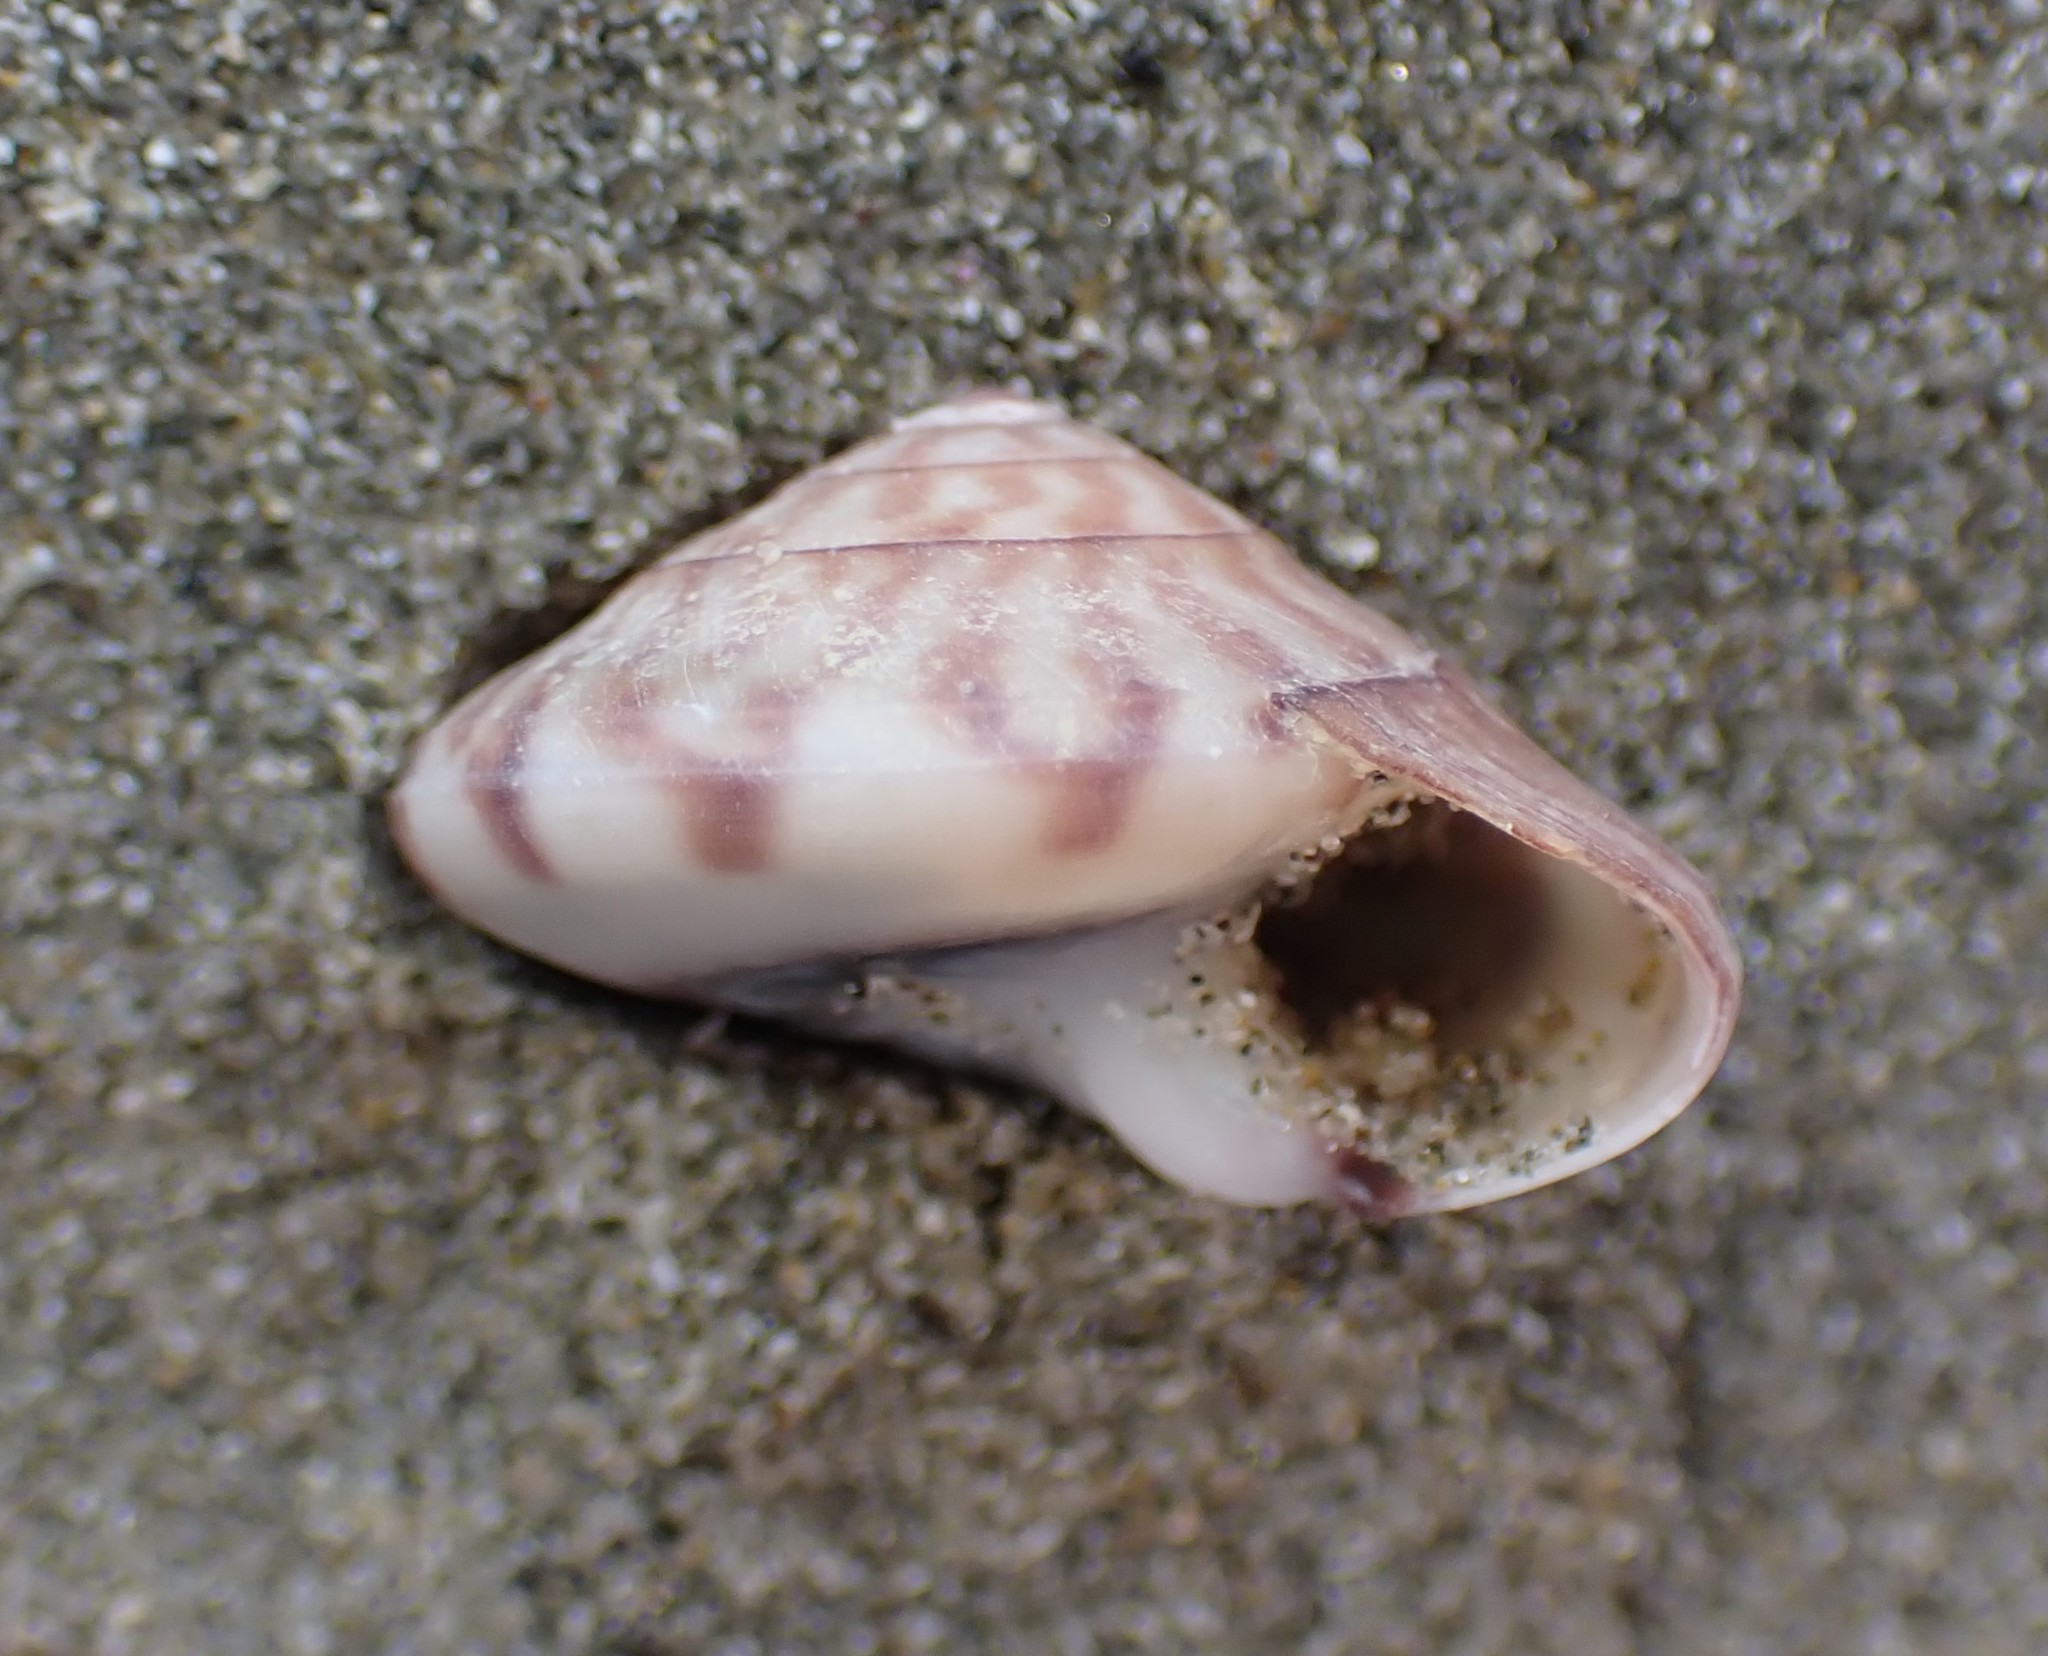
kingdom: Animalia
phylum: Mollusca
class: Gastropoda
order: Trochida
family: Trochidae
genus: Zethalia
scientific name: Zethalia zelandica
